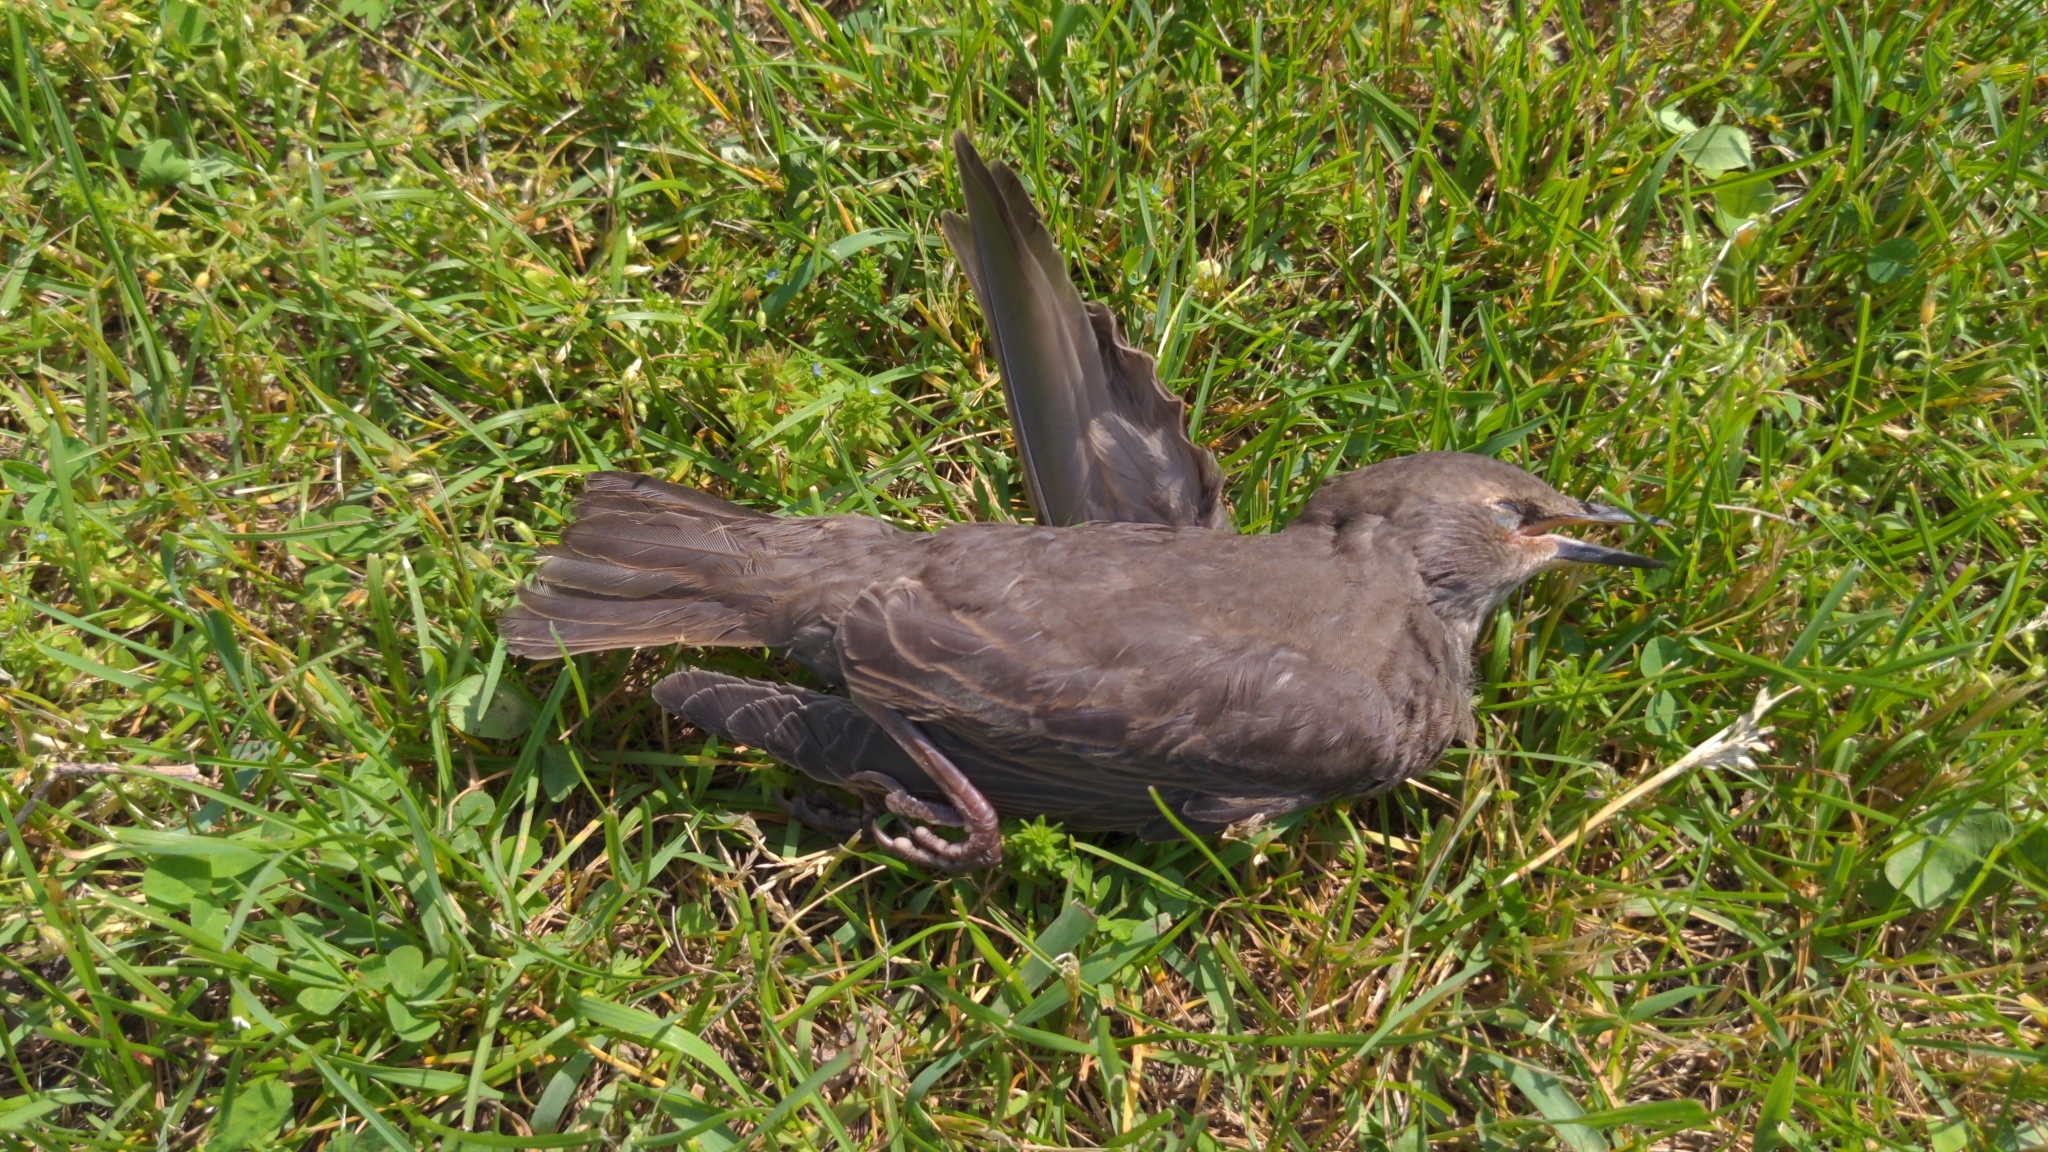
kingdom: Animalia
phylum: Chordata
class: Aves
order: Passeriformes
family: Sturnidae
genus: Sturnus
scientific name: Sturnus vulgaris
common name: Common starling
